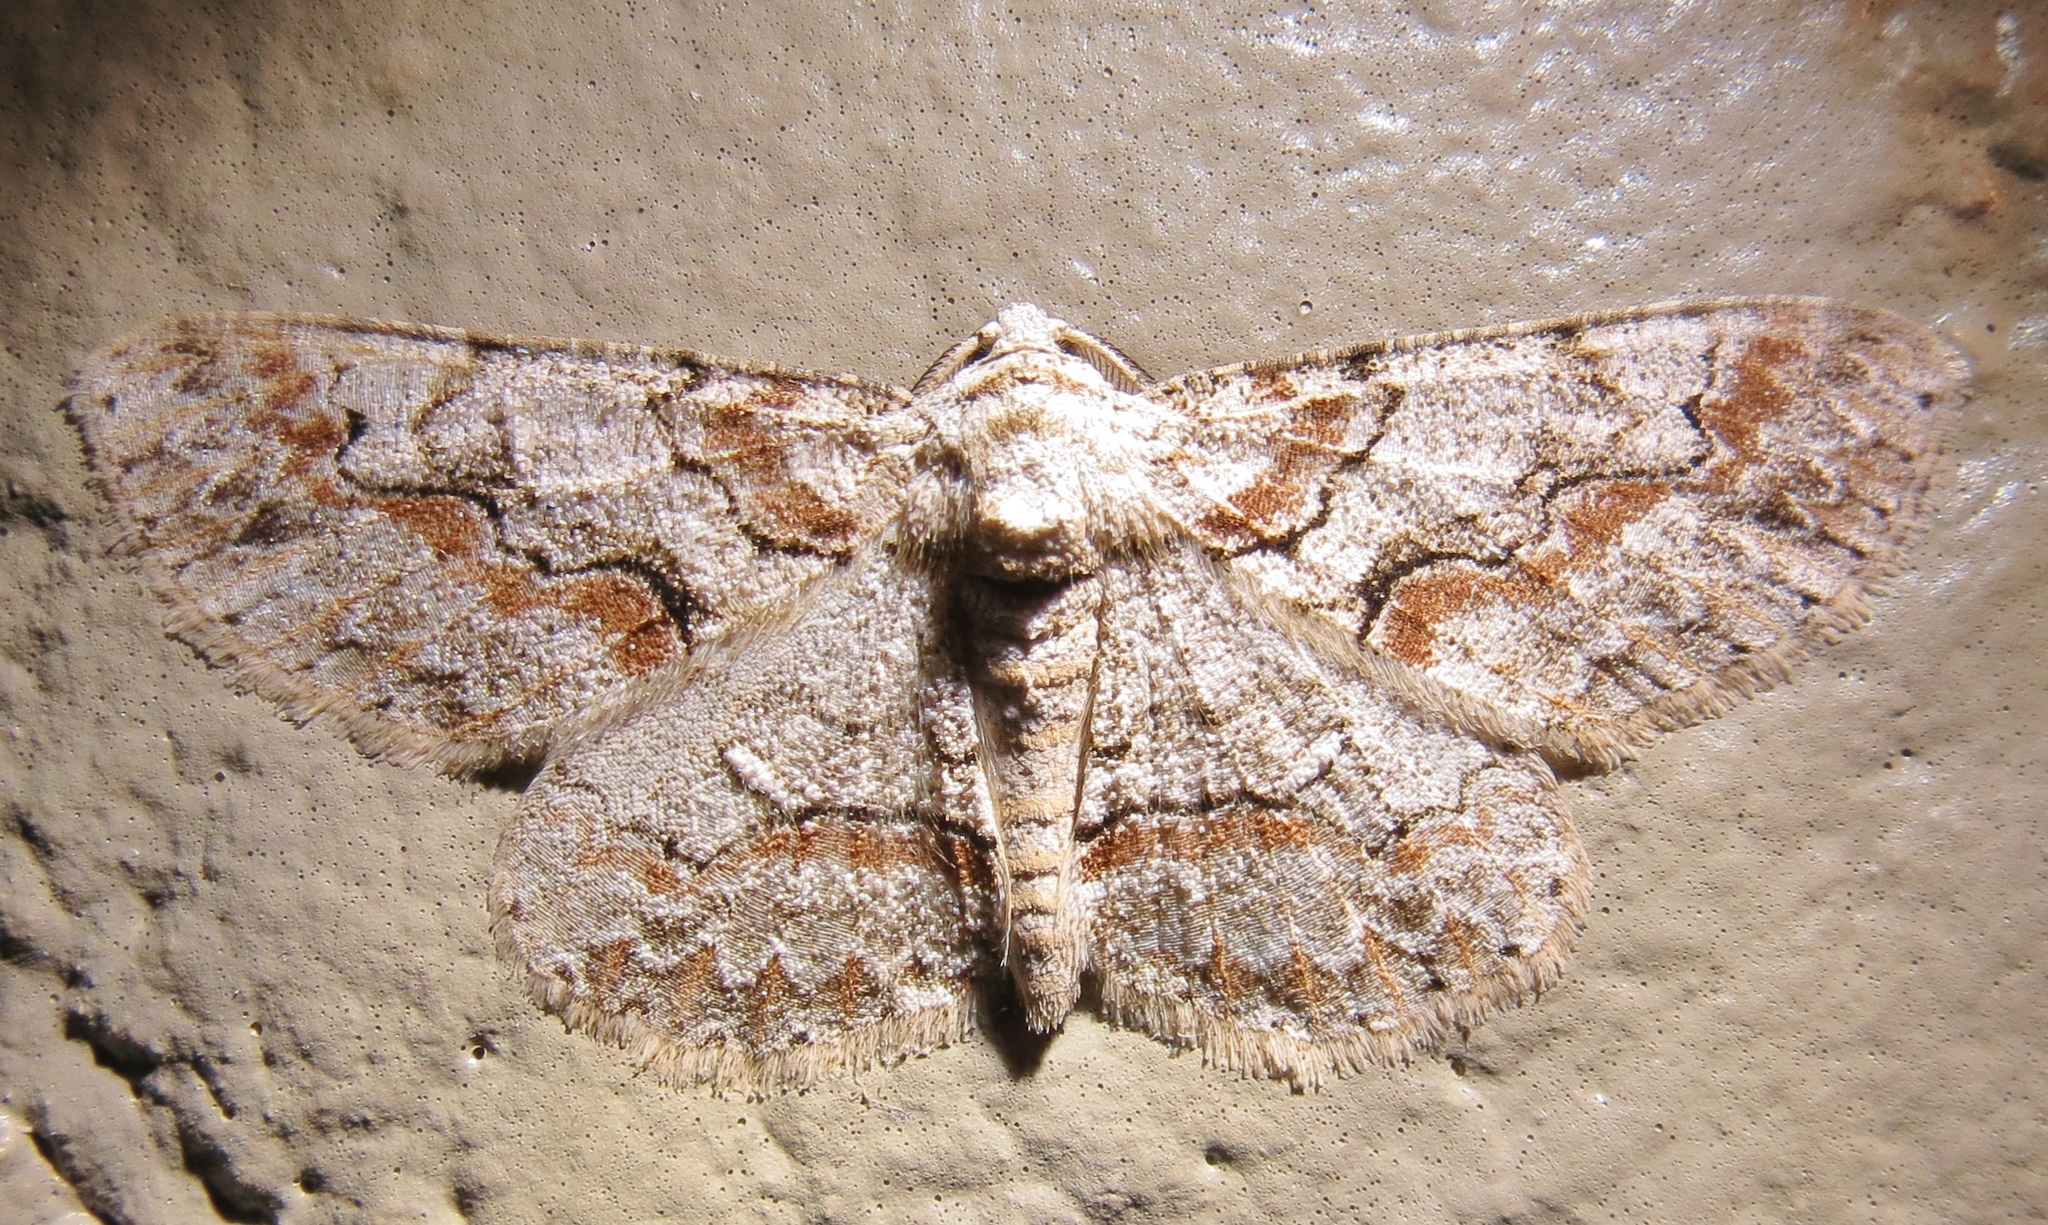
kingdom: Animalia
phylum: Arthropoda
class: Insecta
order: Lepidoptera
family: Geometridae
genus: Iridopsis
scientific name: Iridopsis defectaria
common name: Brown-shaded gray
